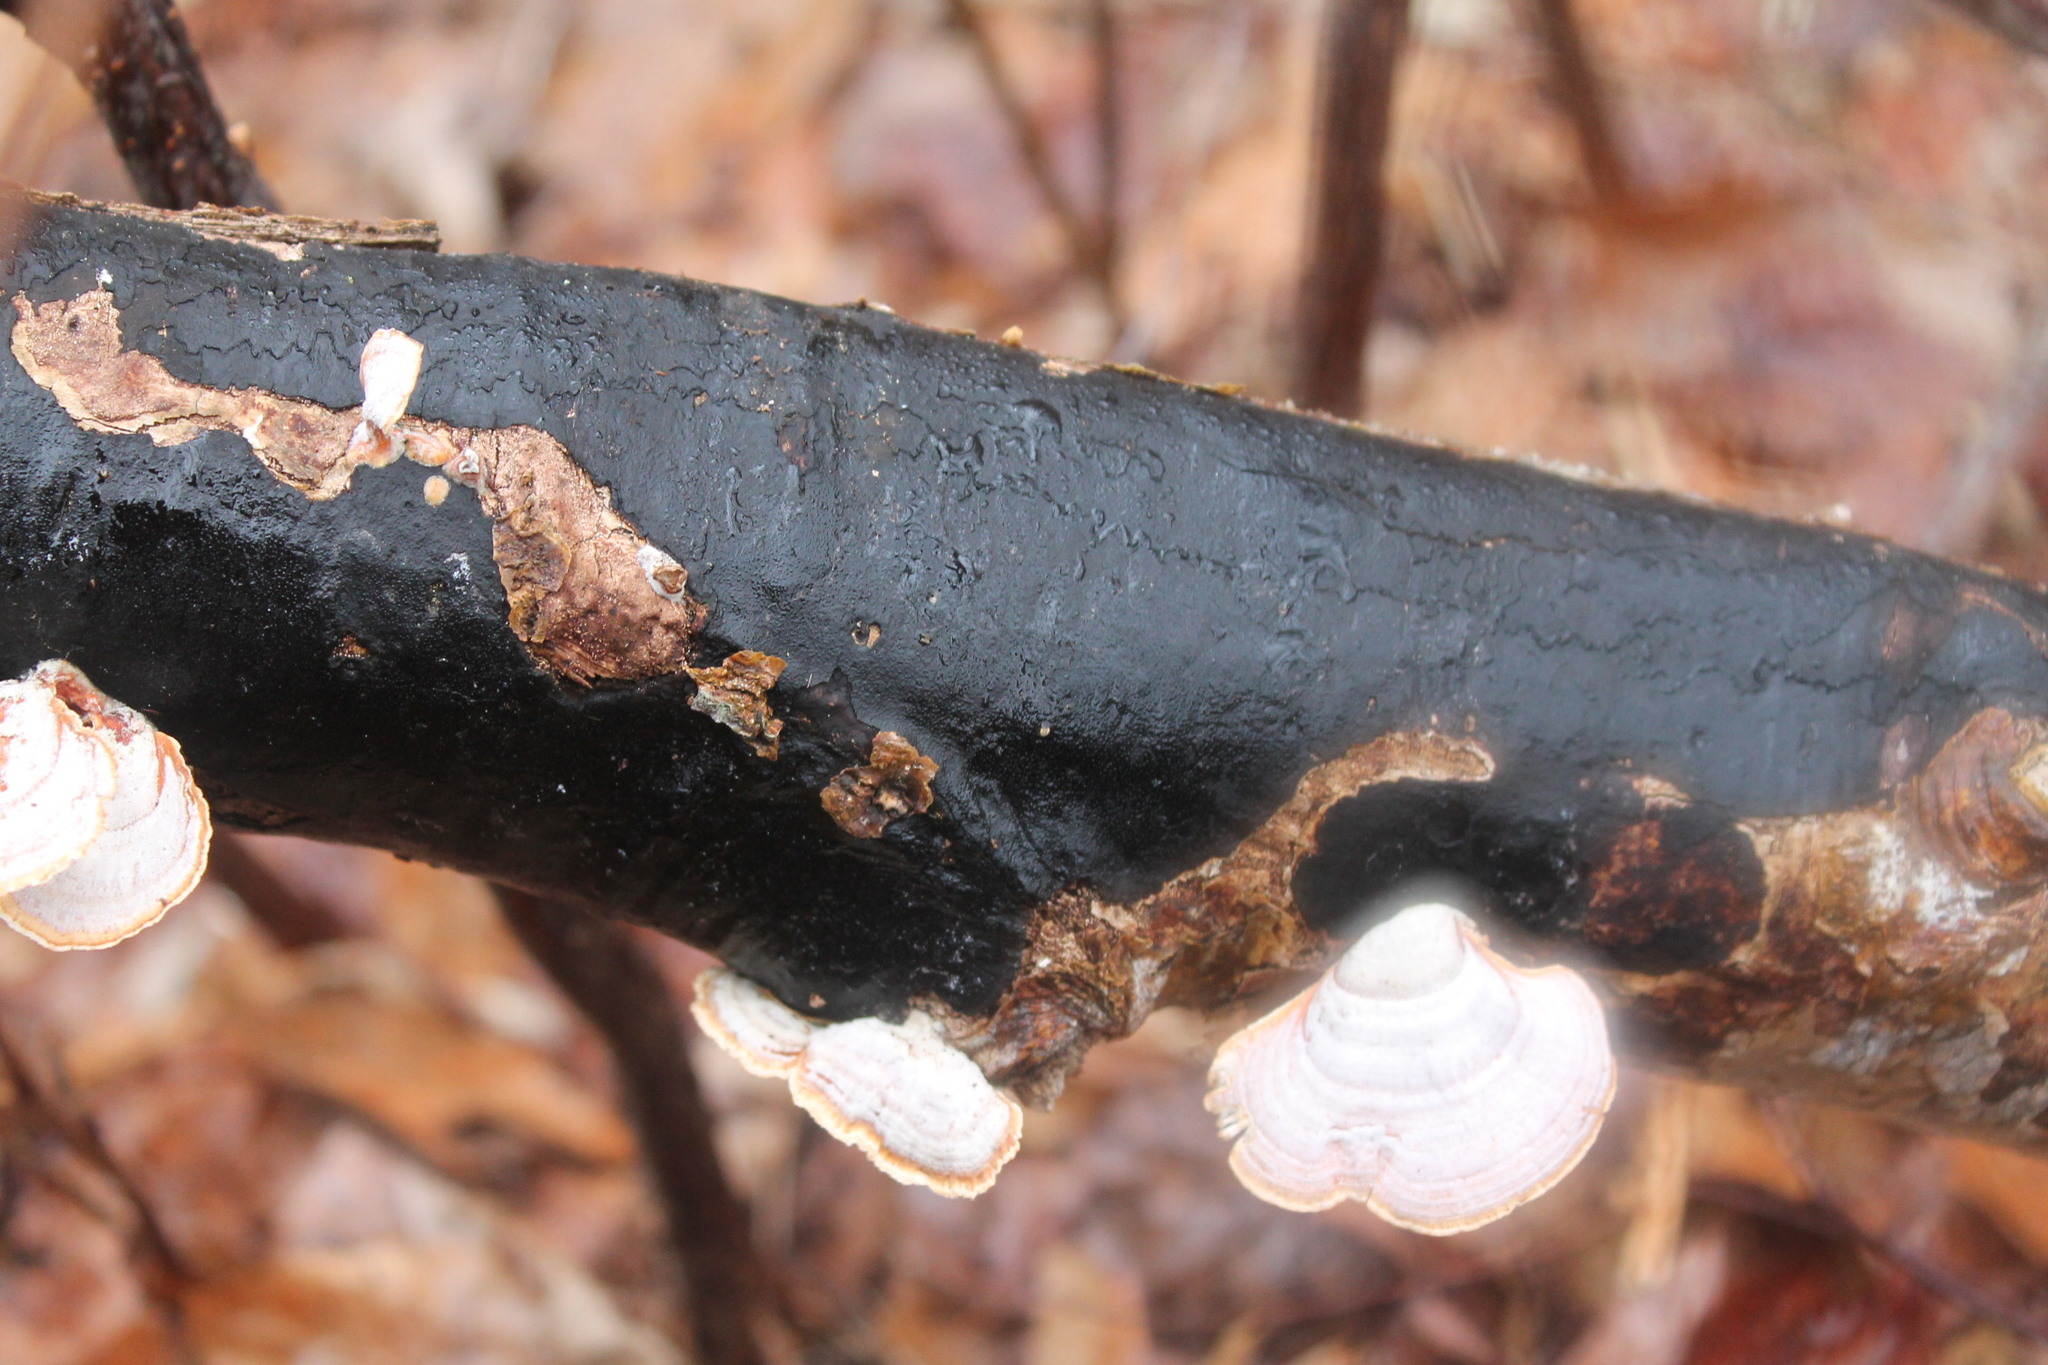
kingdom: Fungi
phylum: Ascomycota
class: Sordariomycetes
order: Xylariales
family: Diatrypaceae
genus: Diatrype
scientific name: Diatrype stigma
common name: Common tarcrust
